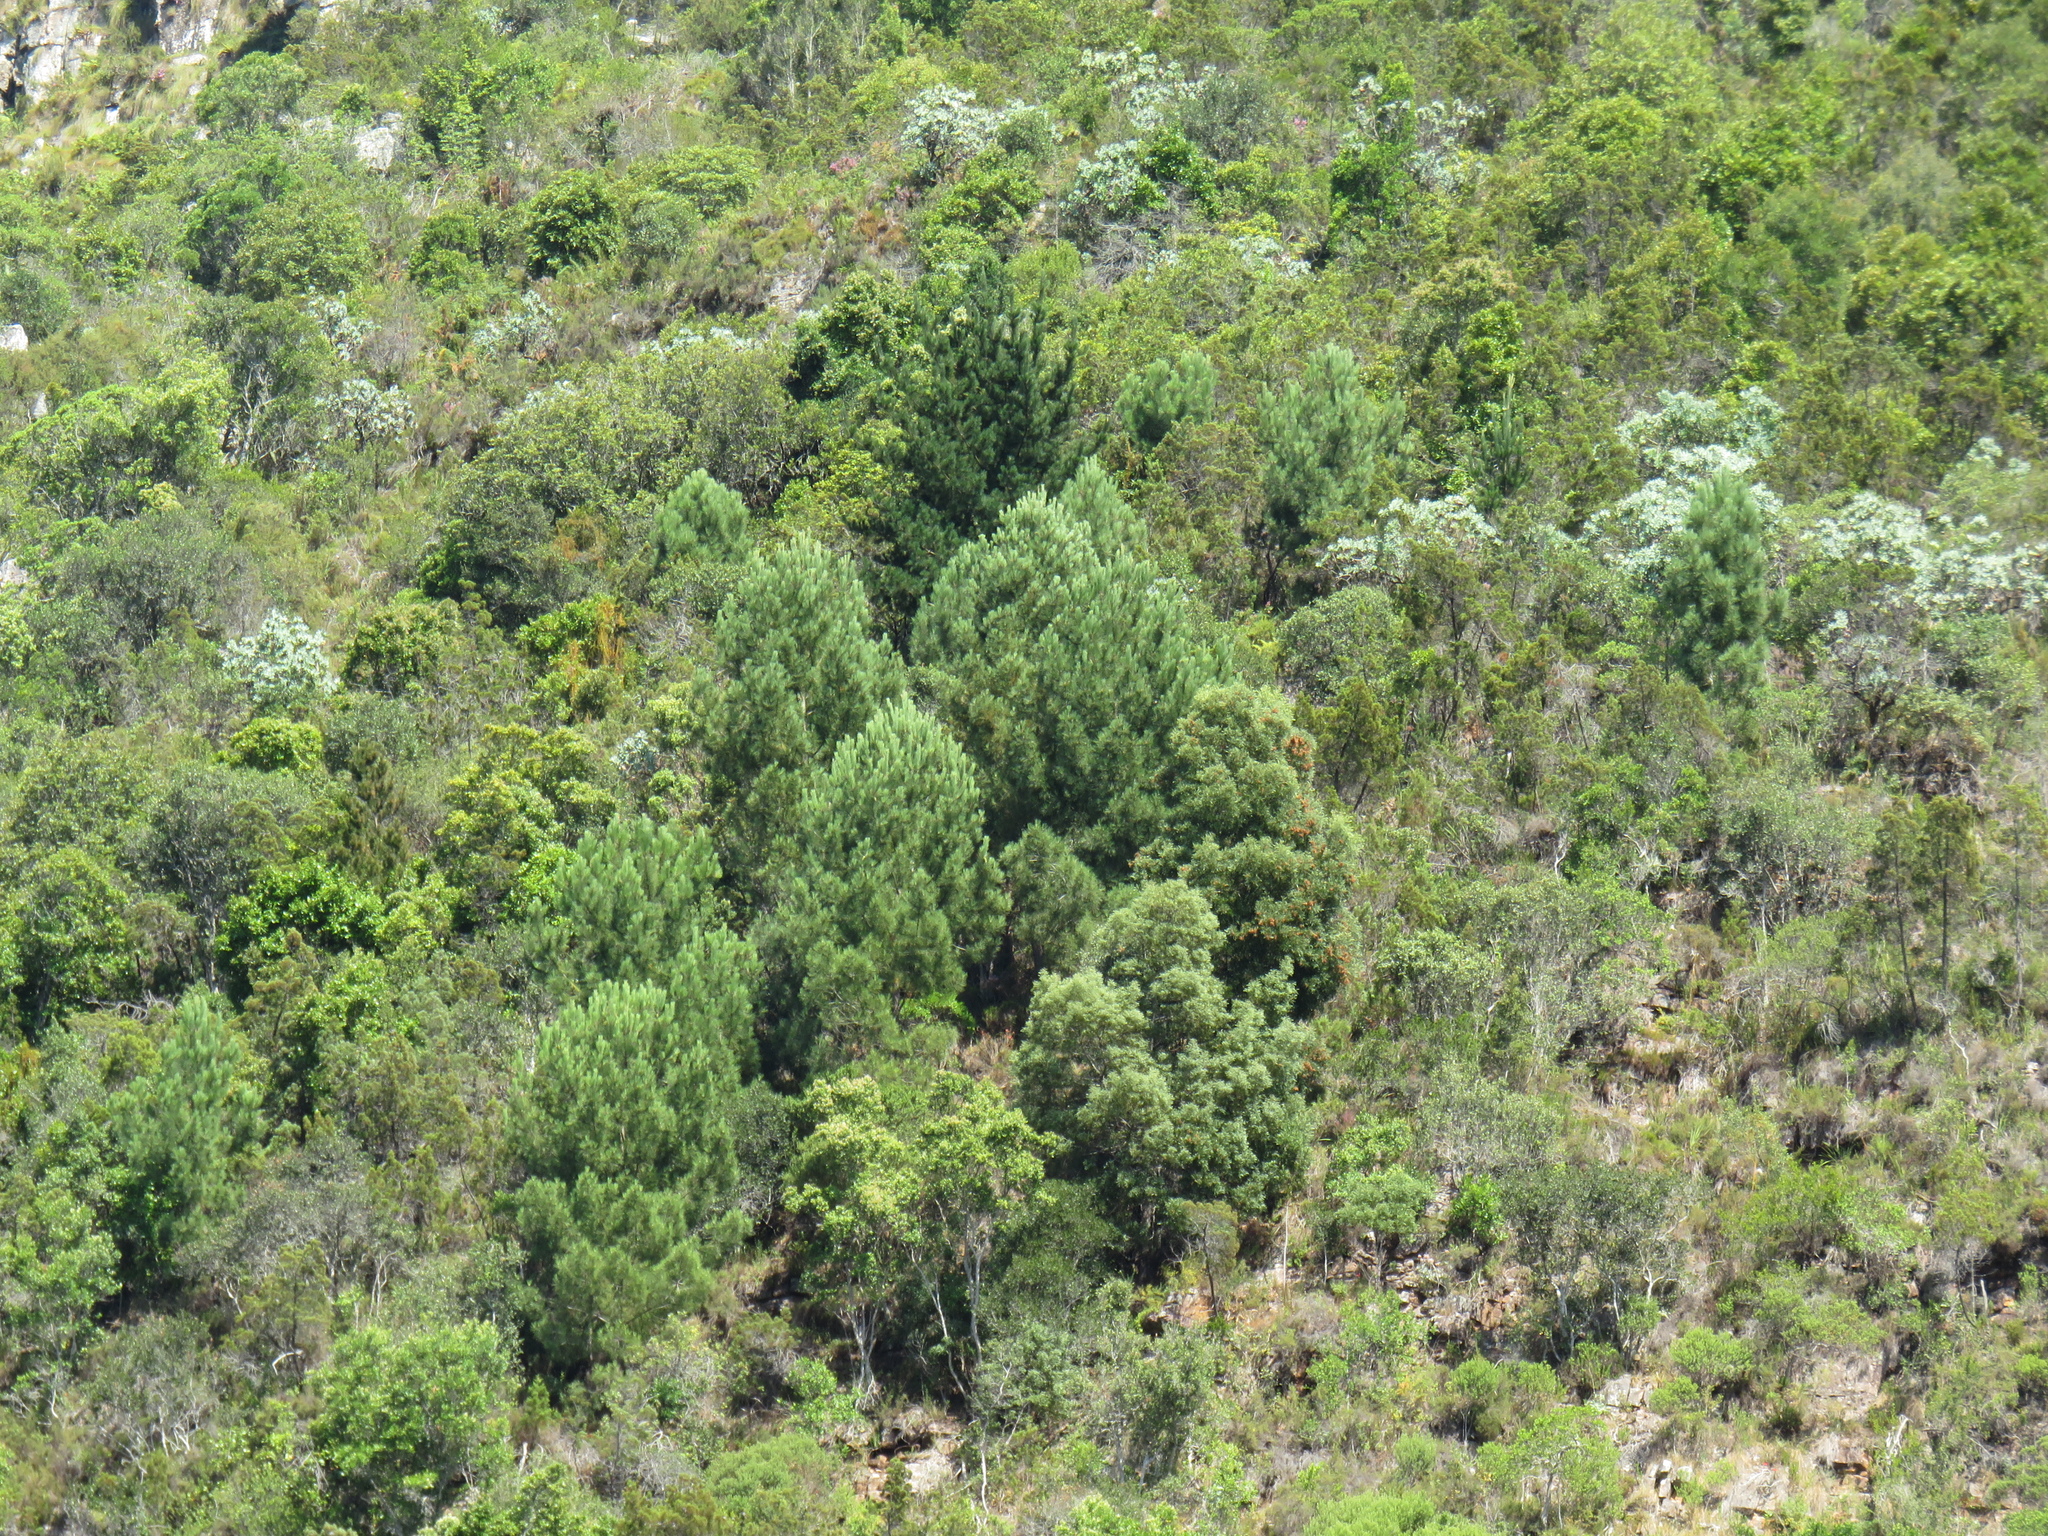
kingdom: Plantae
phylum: Tracheophyta
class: Pinopsida
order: Pinales
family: Pinaceae
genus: Pinus
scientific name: Pinus radiata
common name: Monterey pine
